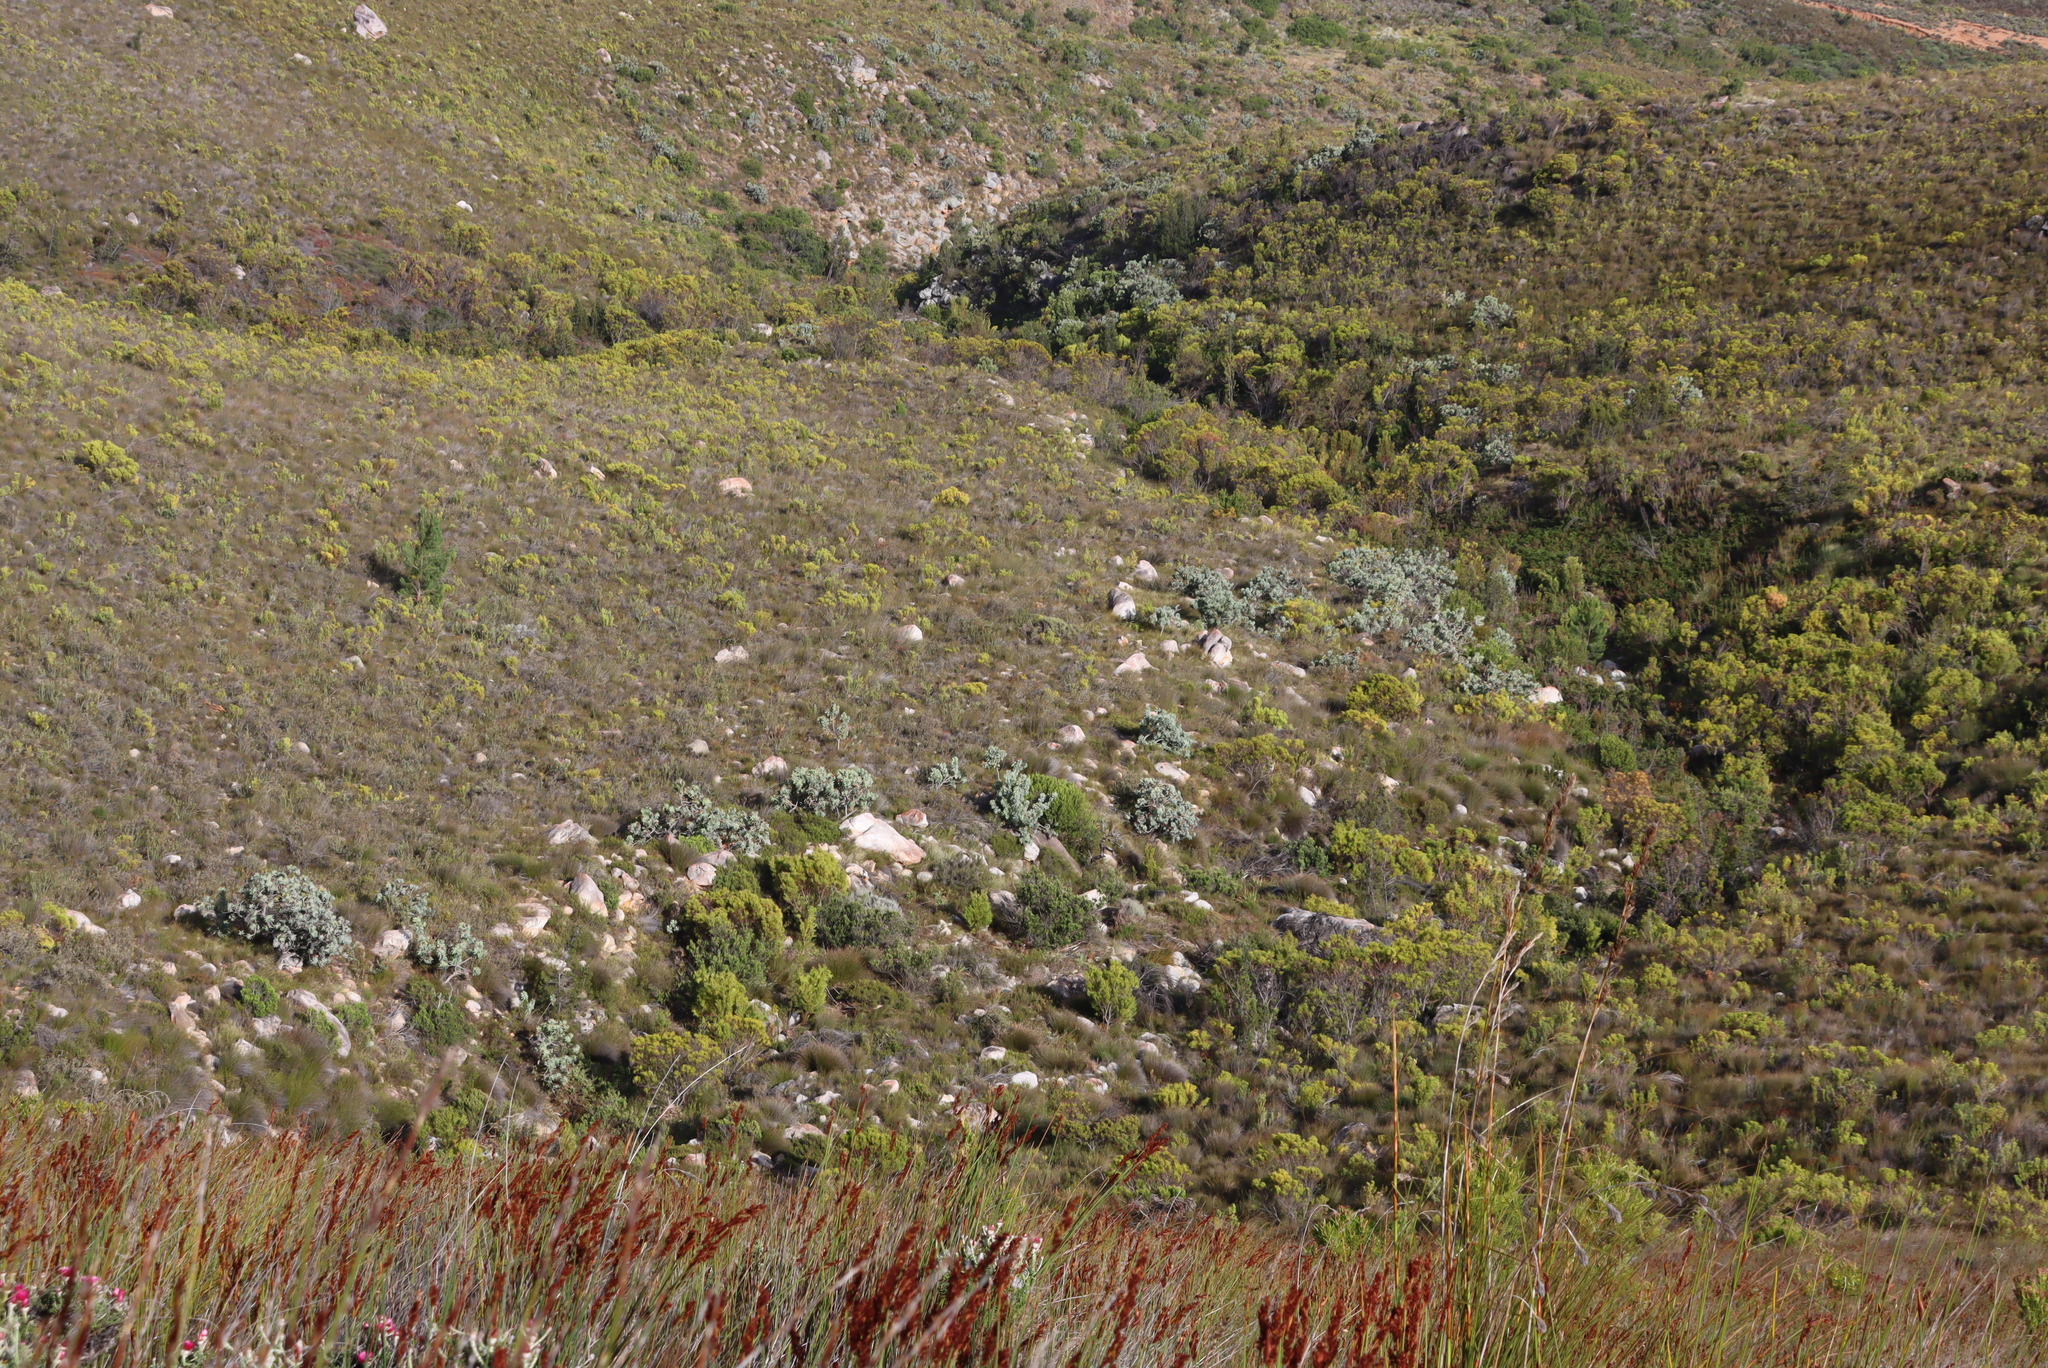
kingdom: Plantae
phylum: Tracheophyta
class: Magnoliopsida
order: Proteales
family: Proteaceae
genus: Protea
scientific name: Protea nitida
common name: Tree protea
